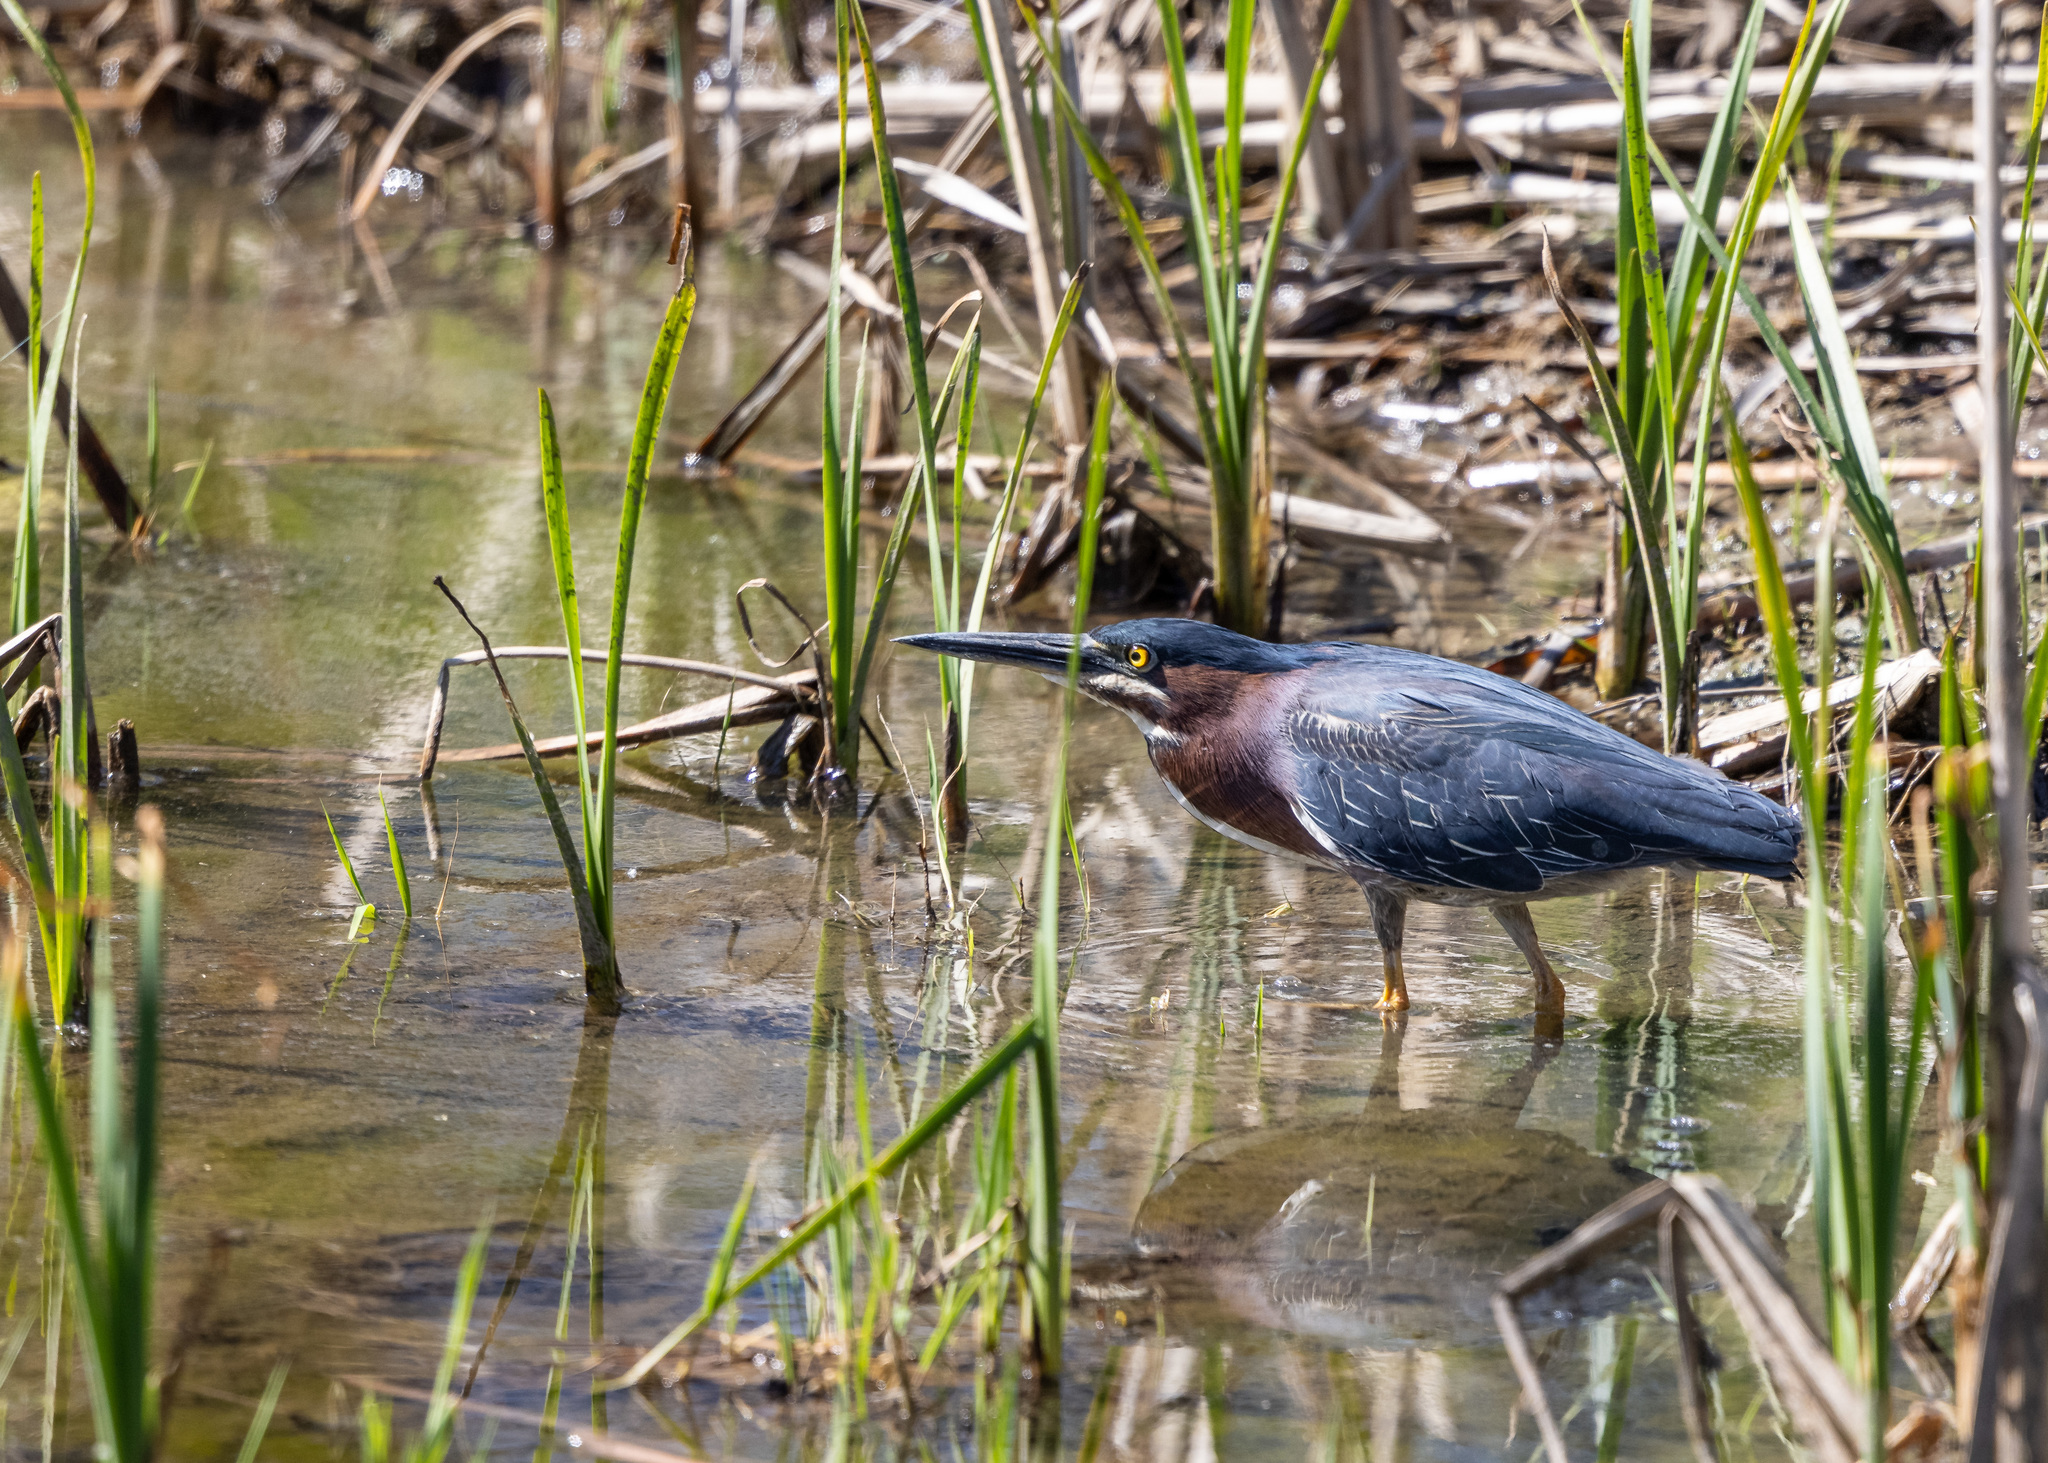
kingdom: Animalia
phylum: Chordata
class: Aves
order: Pelecaniformes
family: Ardeidae
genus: Butorides
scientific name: Butorides virescens
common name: Green heron
